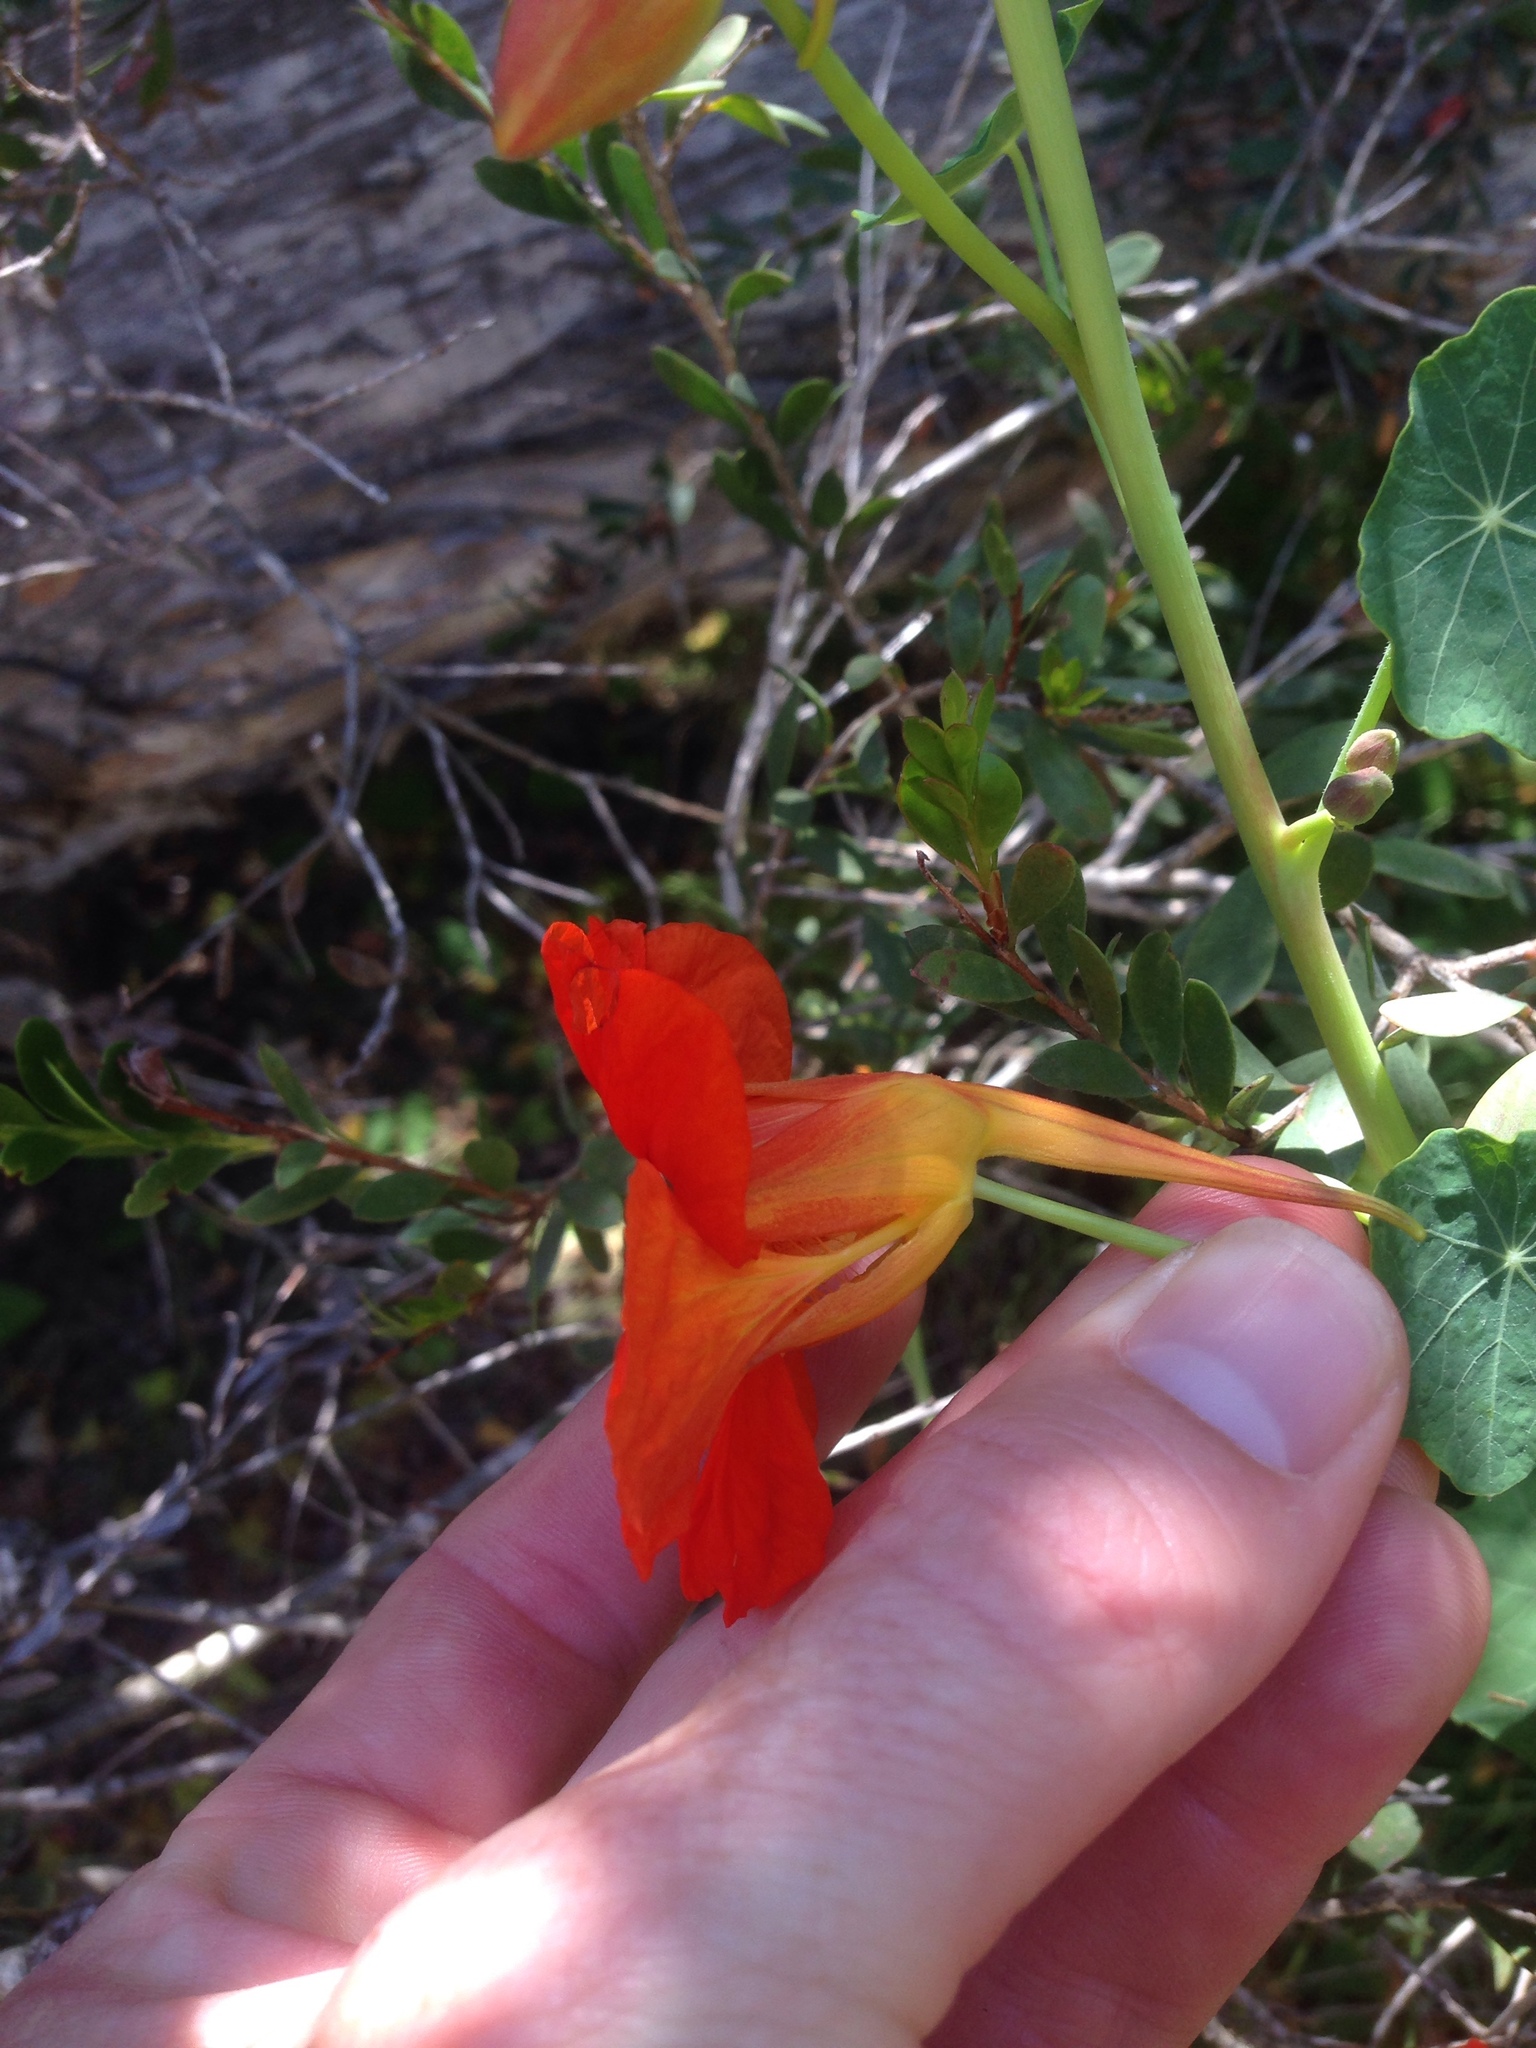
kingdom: Plantae
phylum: Tracheophyta
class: Magnoliopsida
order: Brassicales
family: Tropaeolaceae
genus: Tropaeolum
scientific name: Tropaeolum majus
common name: Nasturtium
